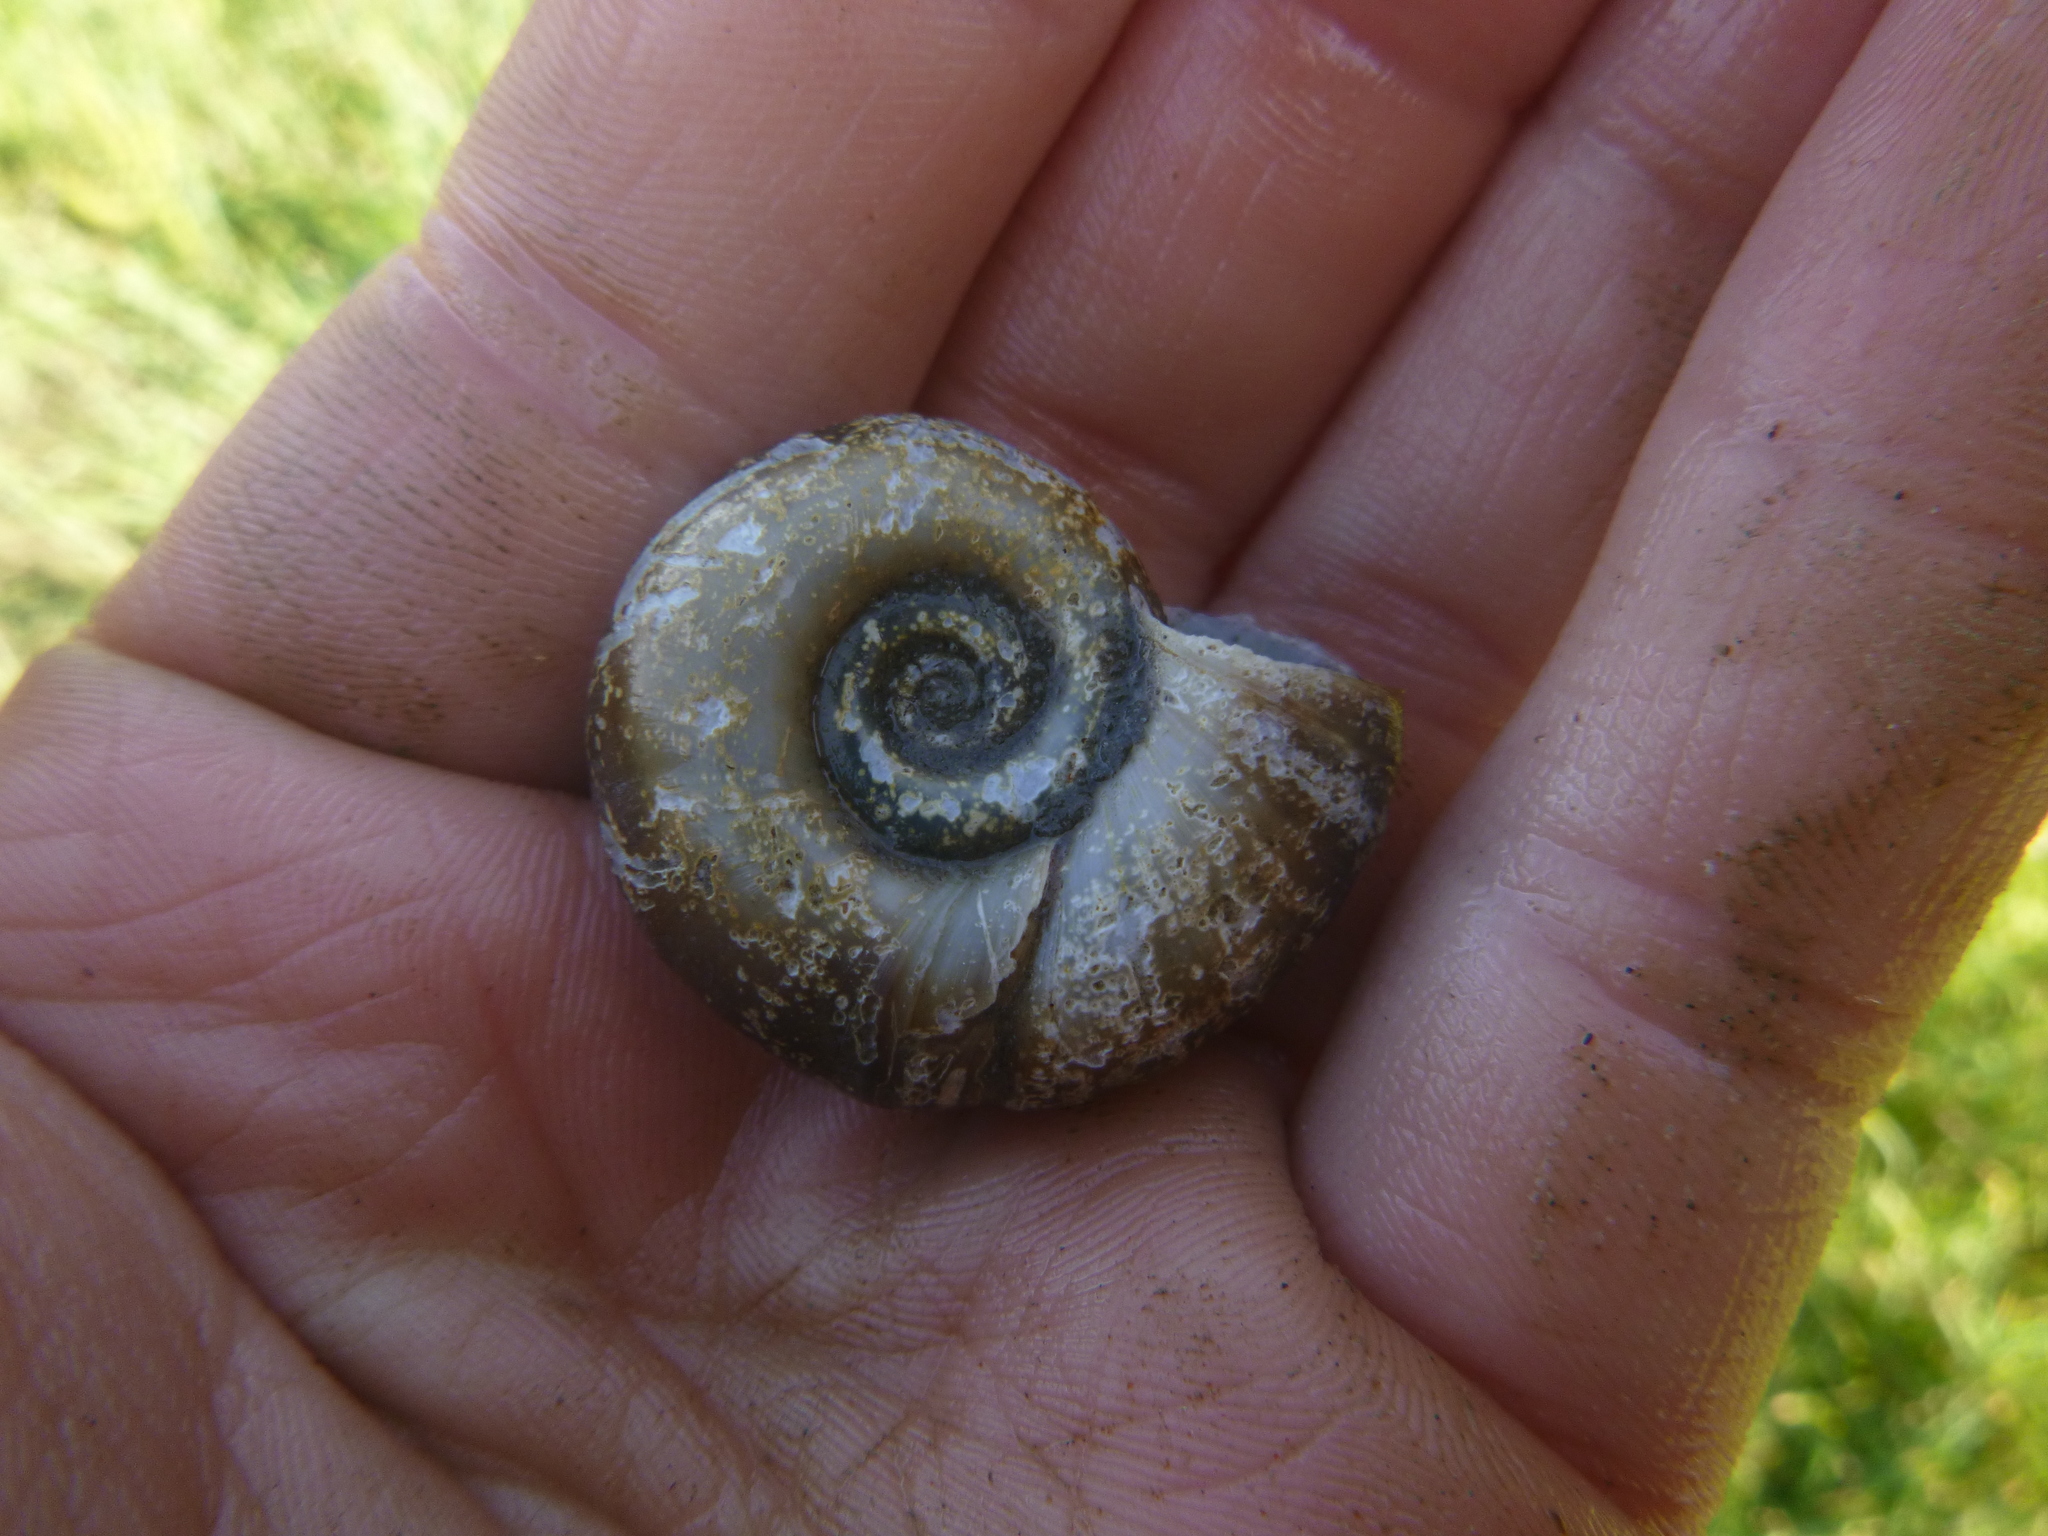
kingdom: Animalia
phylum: Mollusca
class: Gastropoda
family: Planorbidae
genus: Planorbarius
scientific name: Planorbarius corneus
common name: Great ramshorn
